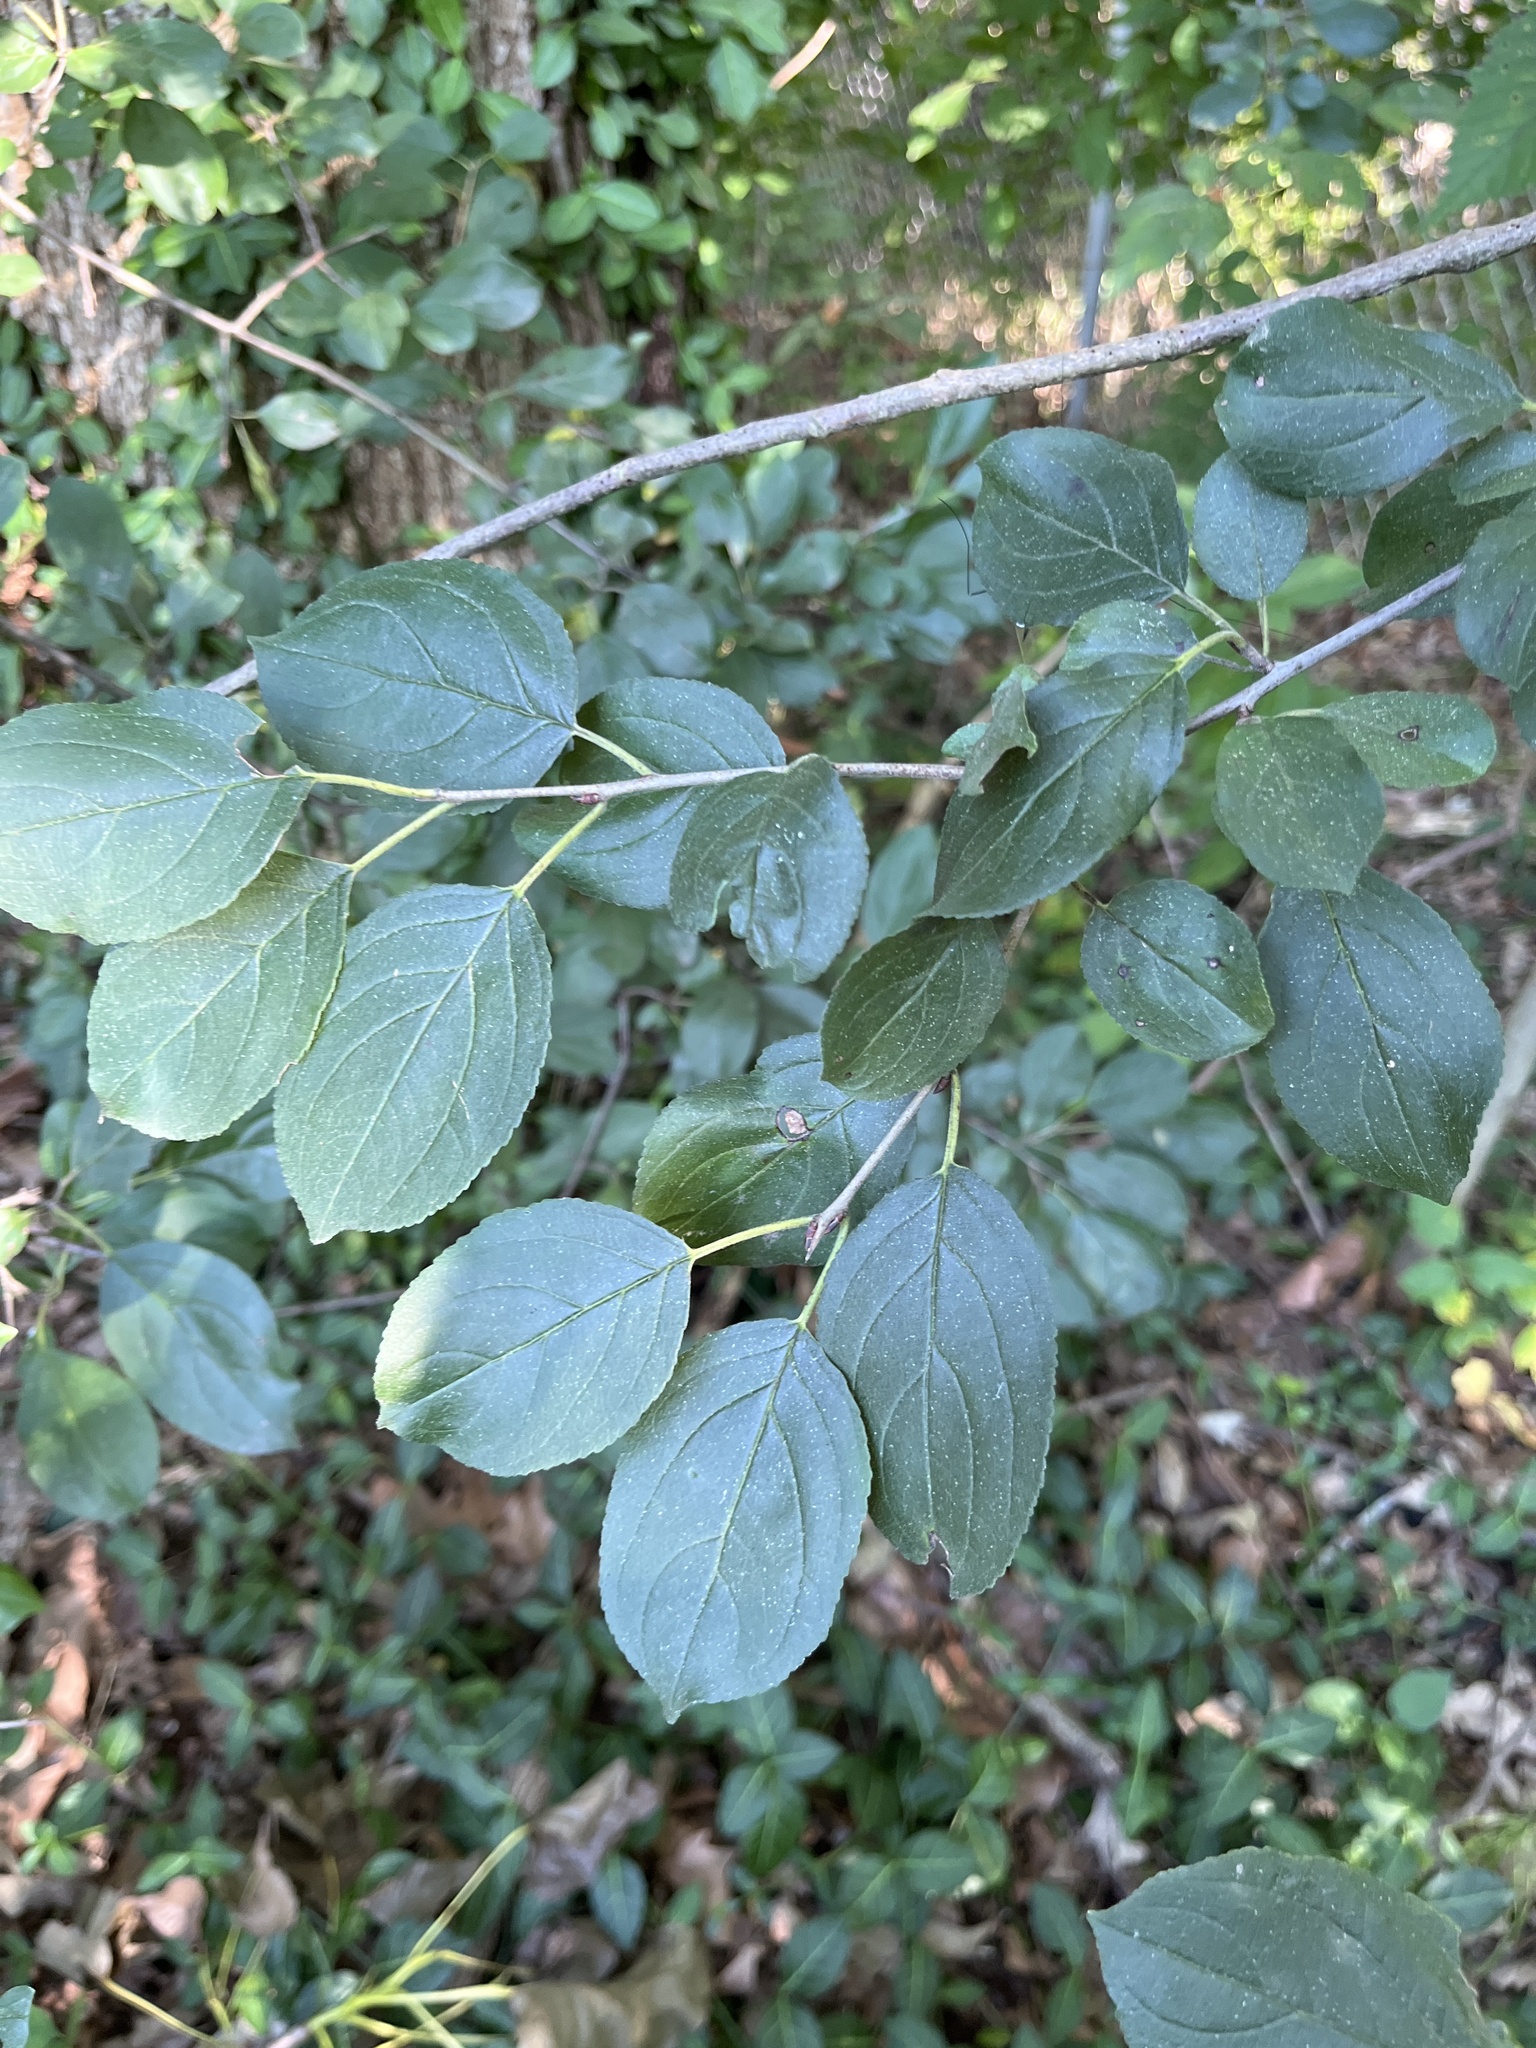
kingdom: Plantae
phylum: Tracheophyta
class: Magnoliopsida
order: Rosales
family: Rhamnaceae
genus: Rhamnus
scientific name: Rhamnus cathartica
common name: Common buckthorn
